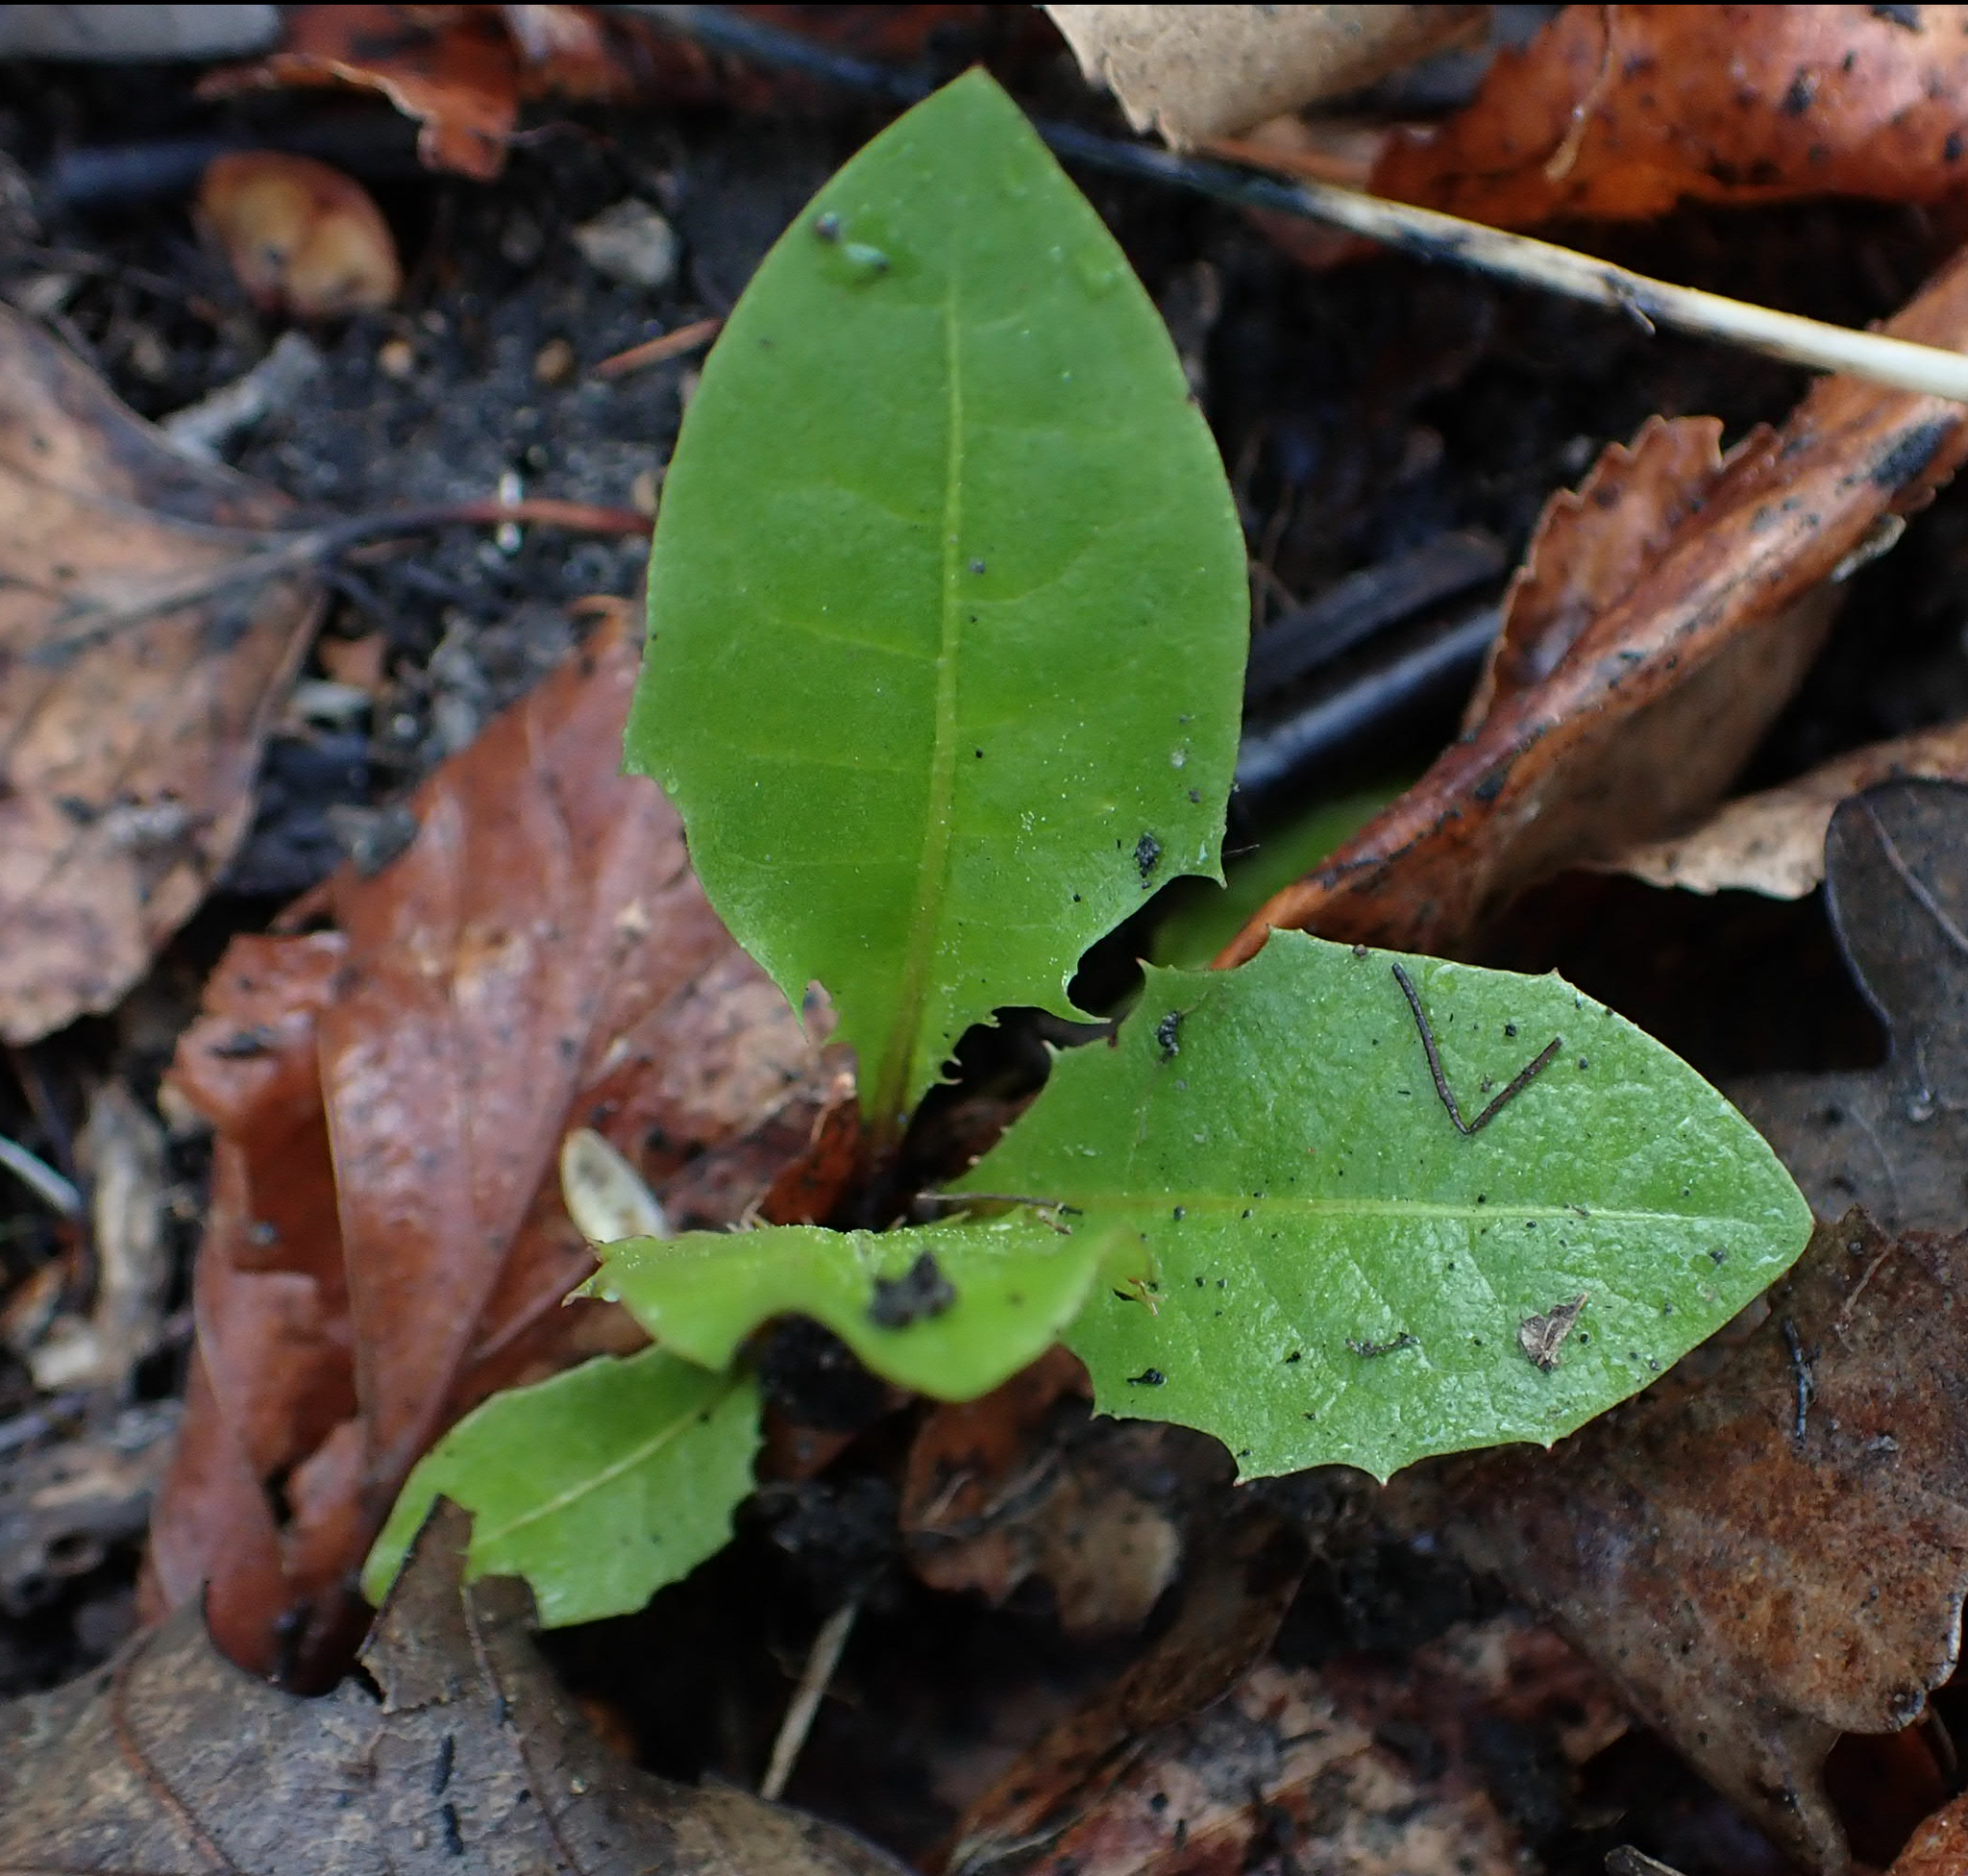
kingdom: Plantae
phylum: Tracheophyta
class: Magnoliopsida
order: Asterales
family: Asteraceae
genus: Taraxacum
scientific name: Taraxacum officinale
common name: Common dandelion
